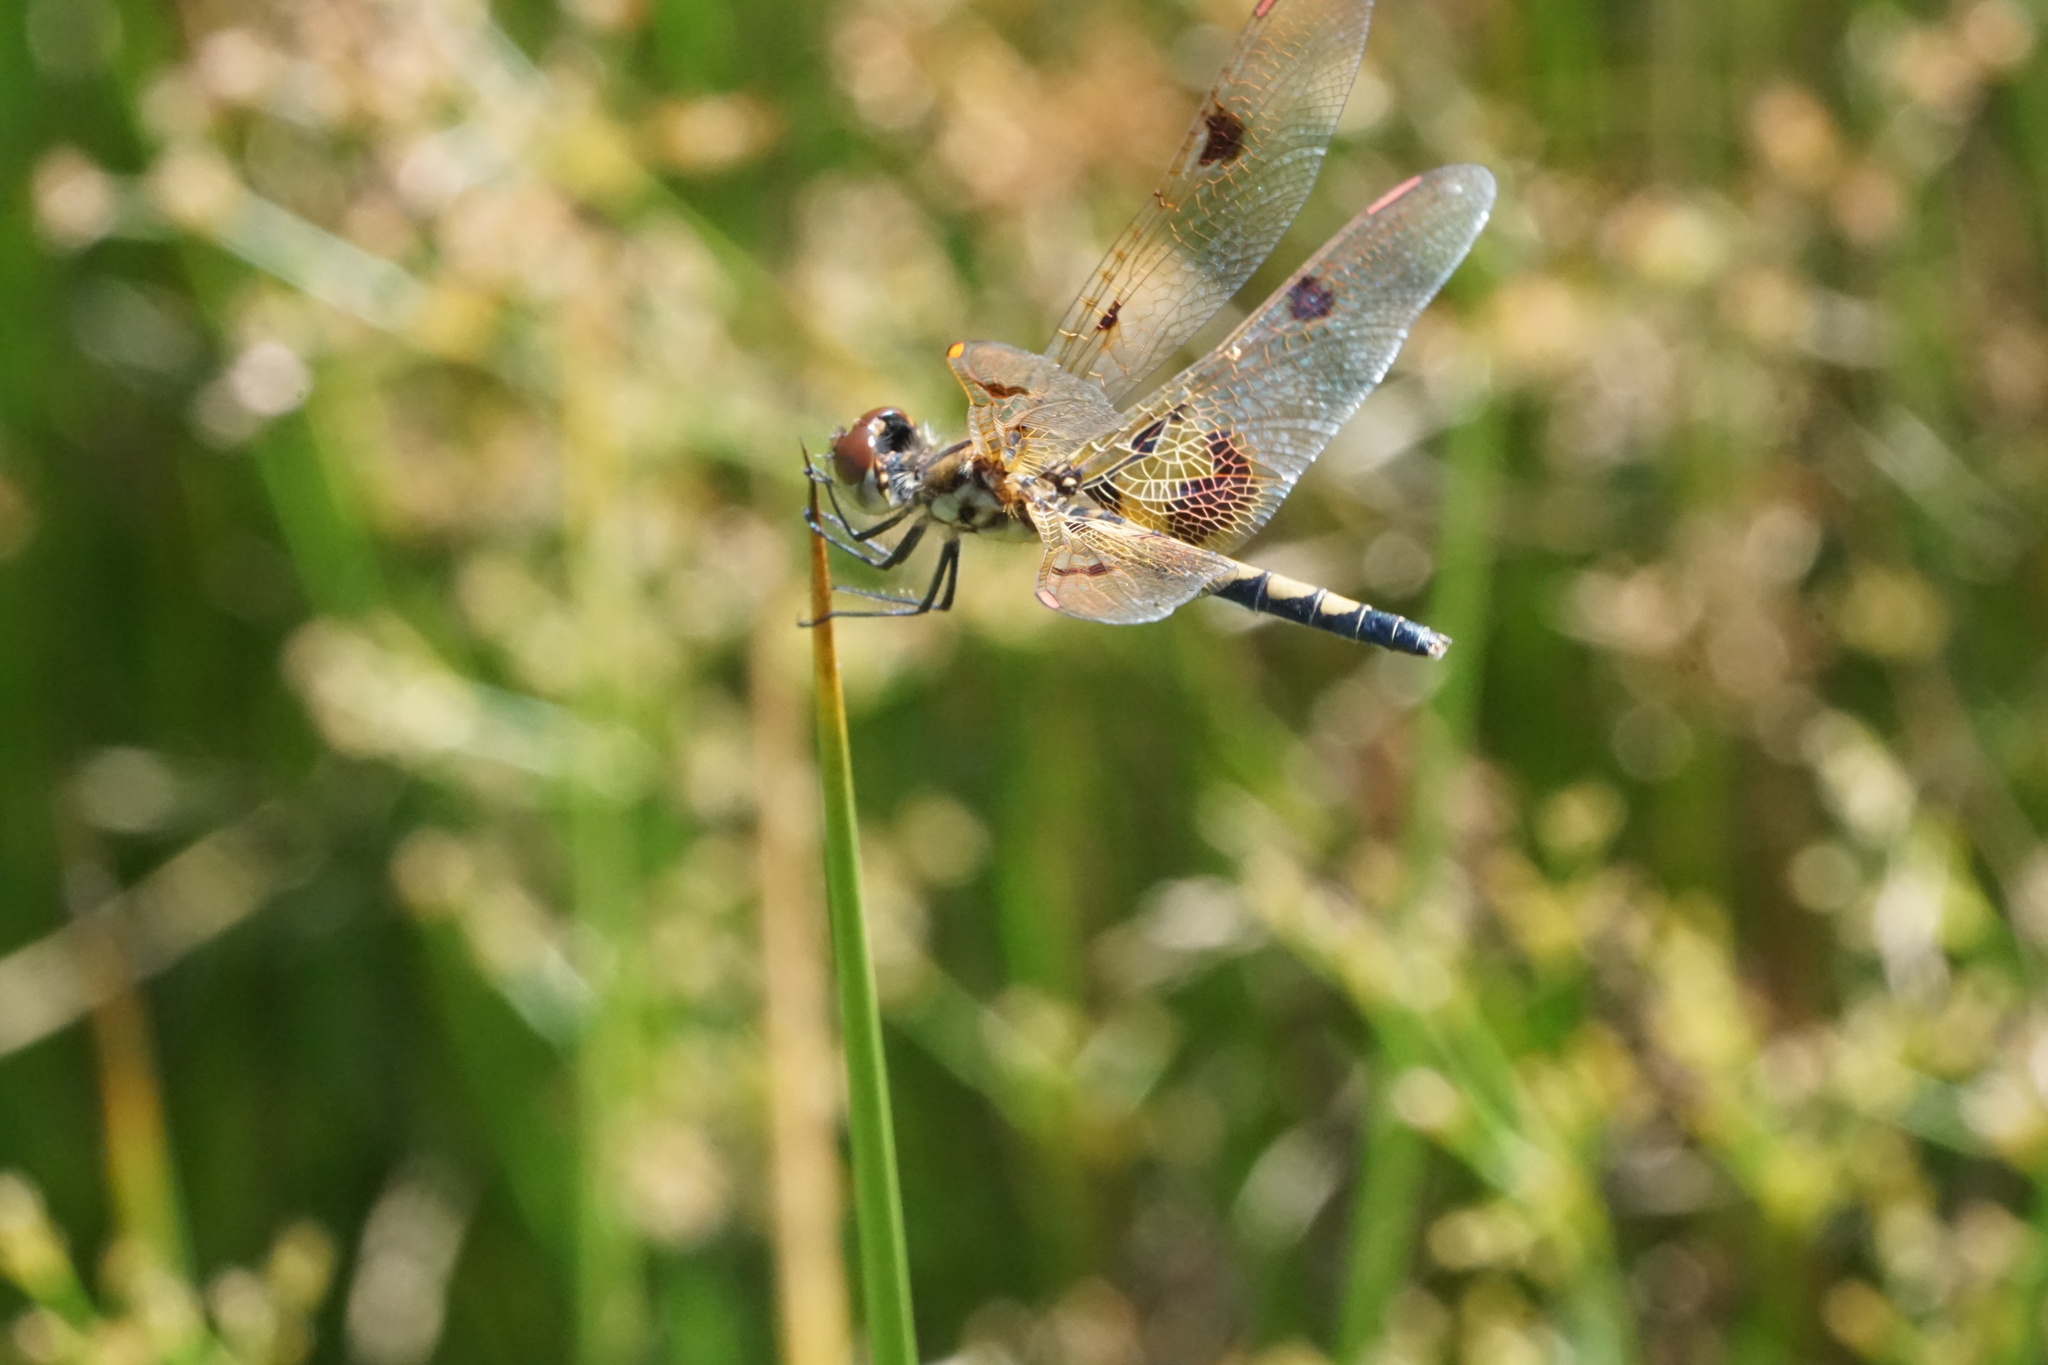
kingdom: Animalia
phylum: Arthropoda
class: Insecta
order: Odonata
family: Libellulidae
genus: Celithemis
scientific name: Celithemis elisa
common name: Calico pennant
